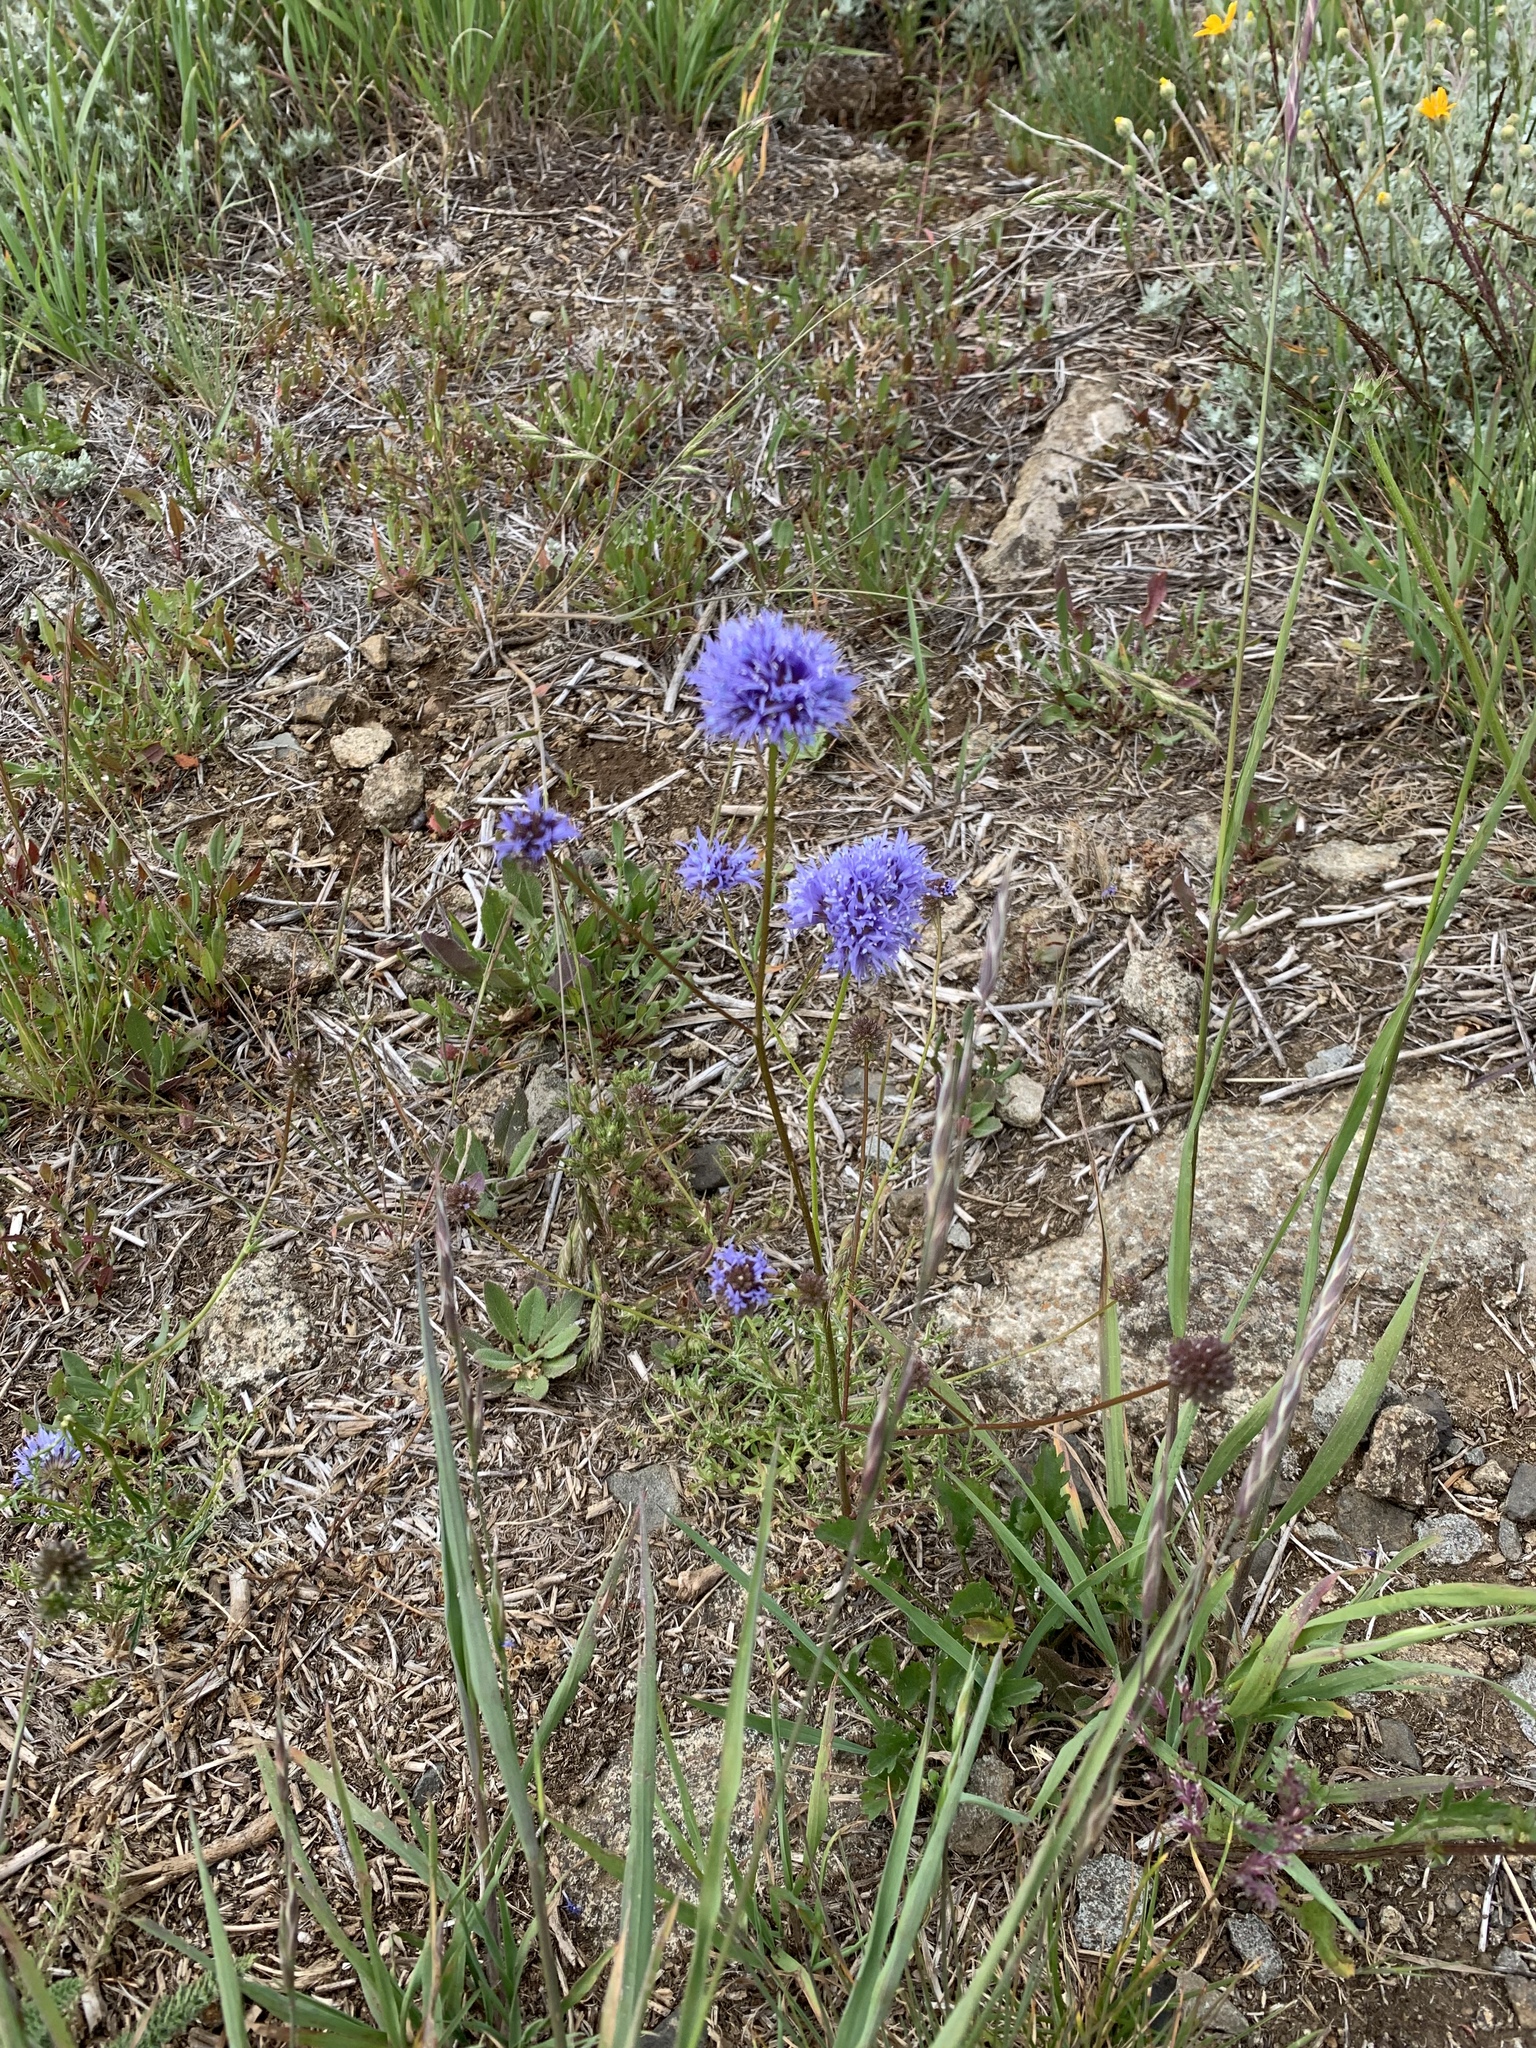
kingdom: Plantae
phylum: Tracheophyta
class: Magnoliopsida
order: Ericales
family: Polemoniaceae
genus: Gilia
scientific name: Gilia capitata
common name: Bluehead gilia
